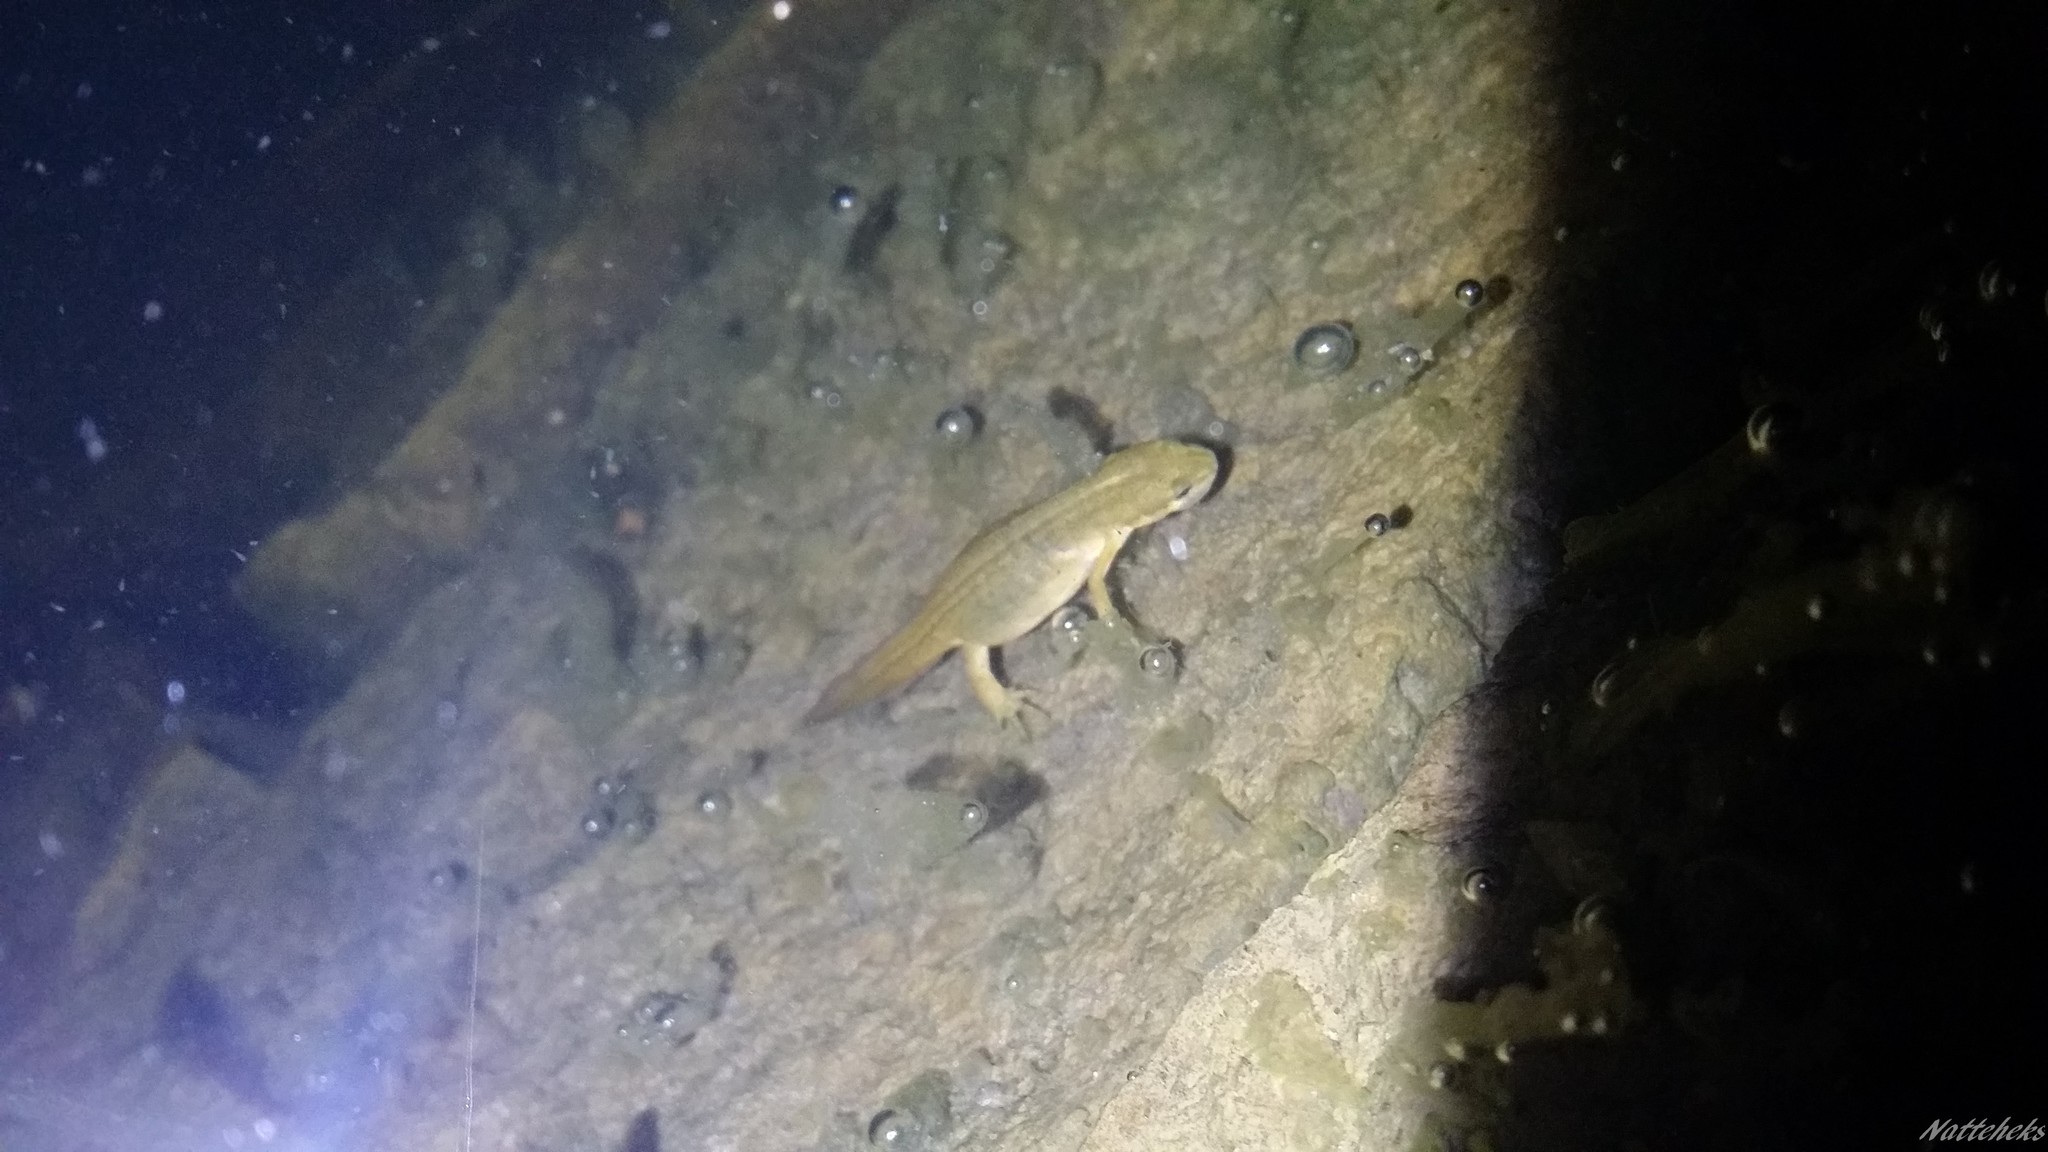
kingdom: Animalia
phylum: Chordata
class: Amphibia
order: Caudata
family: Salamandridae
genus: Lissotriton
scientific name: Lissotriton vulgaris
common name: Smooth newt
